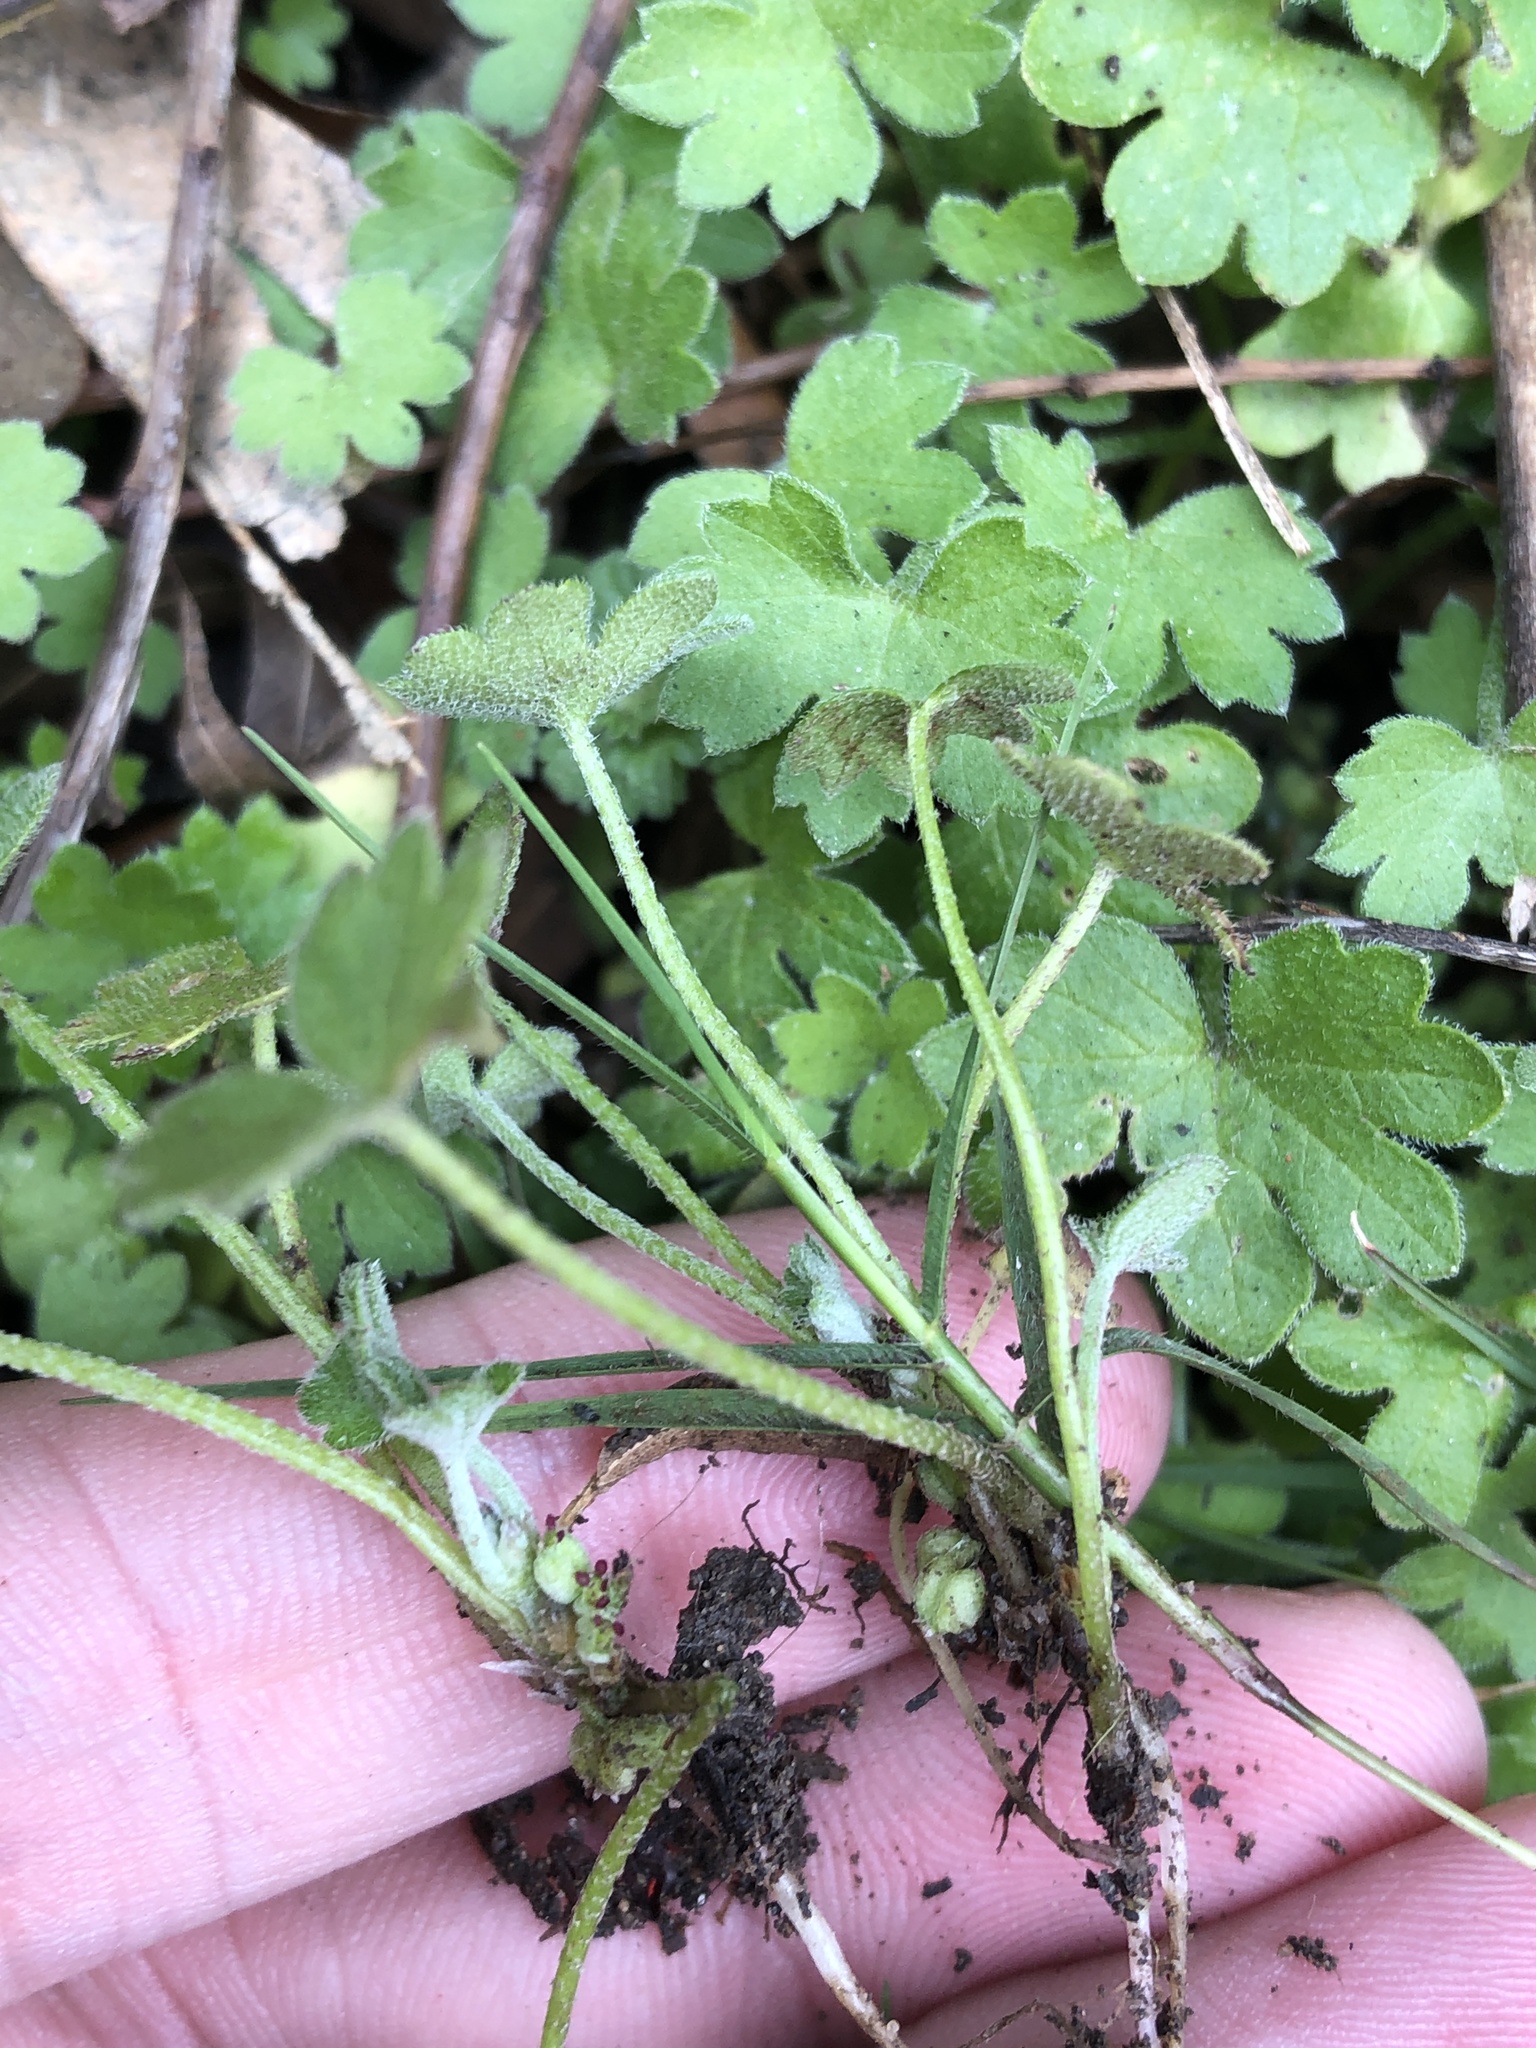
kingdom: Plantae
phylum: Tracheophyta
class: Magnoliopsida
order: Apiales
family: Apiaceae
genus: Bowlesia
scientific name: Bowlesia incana
